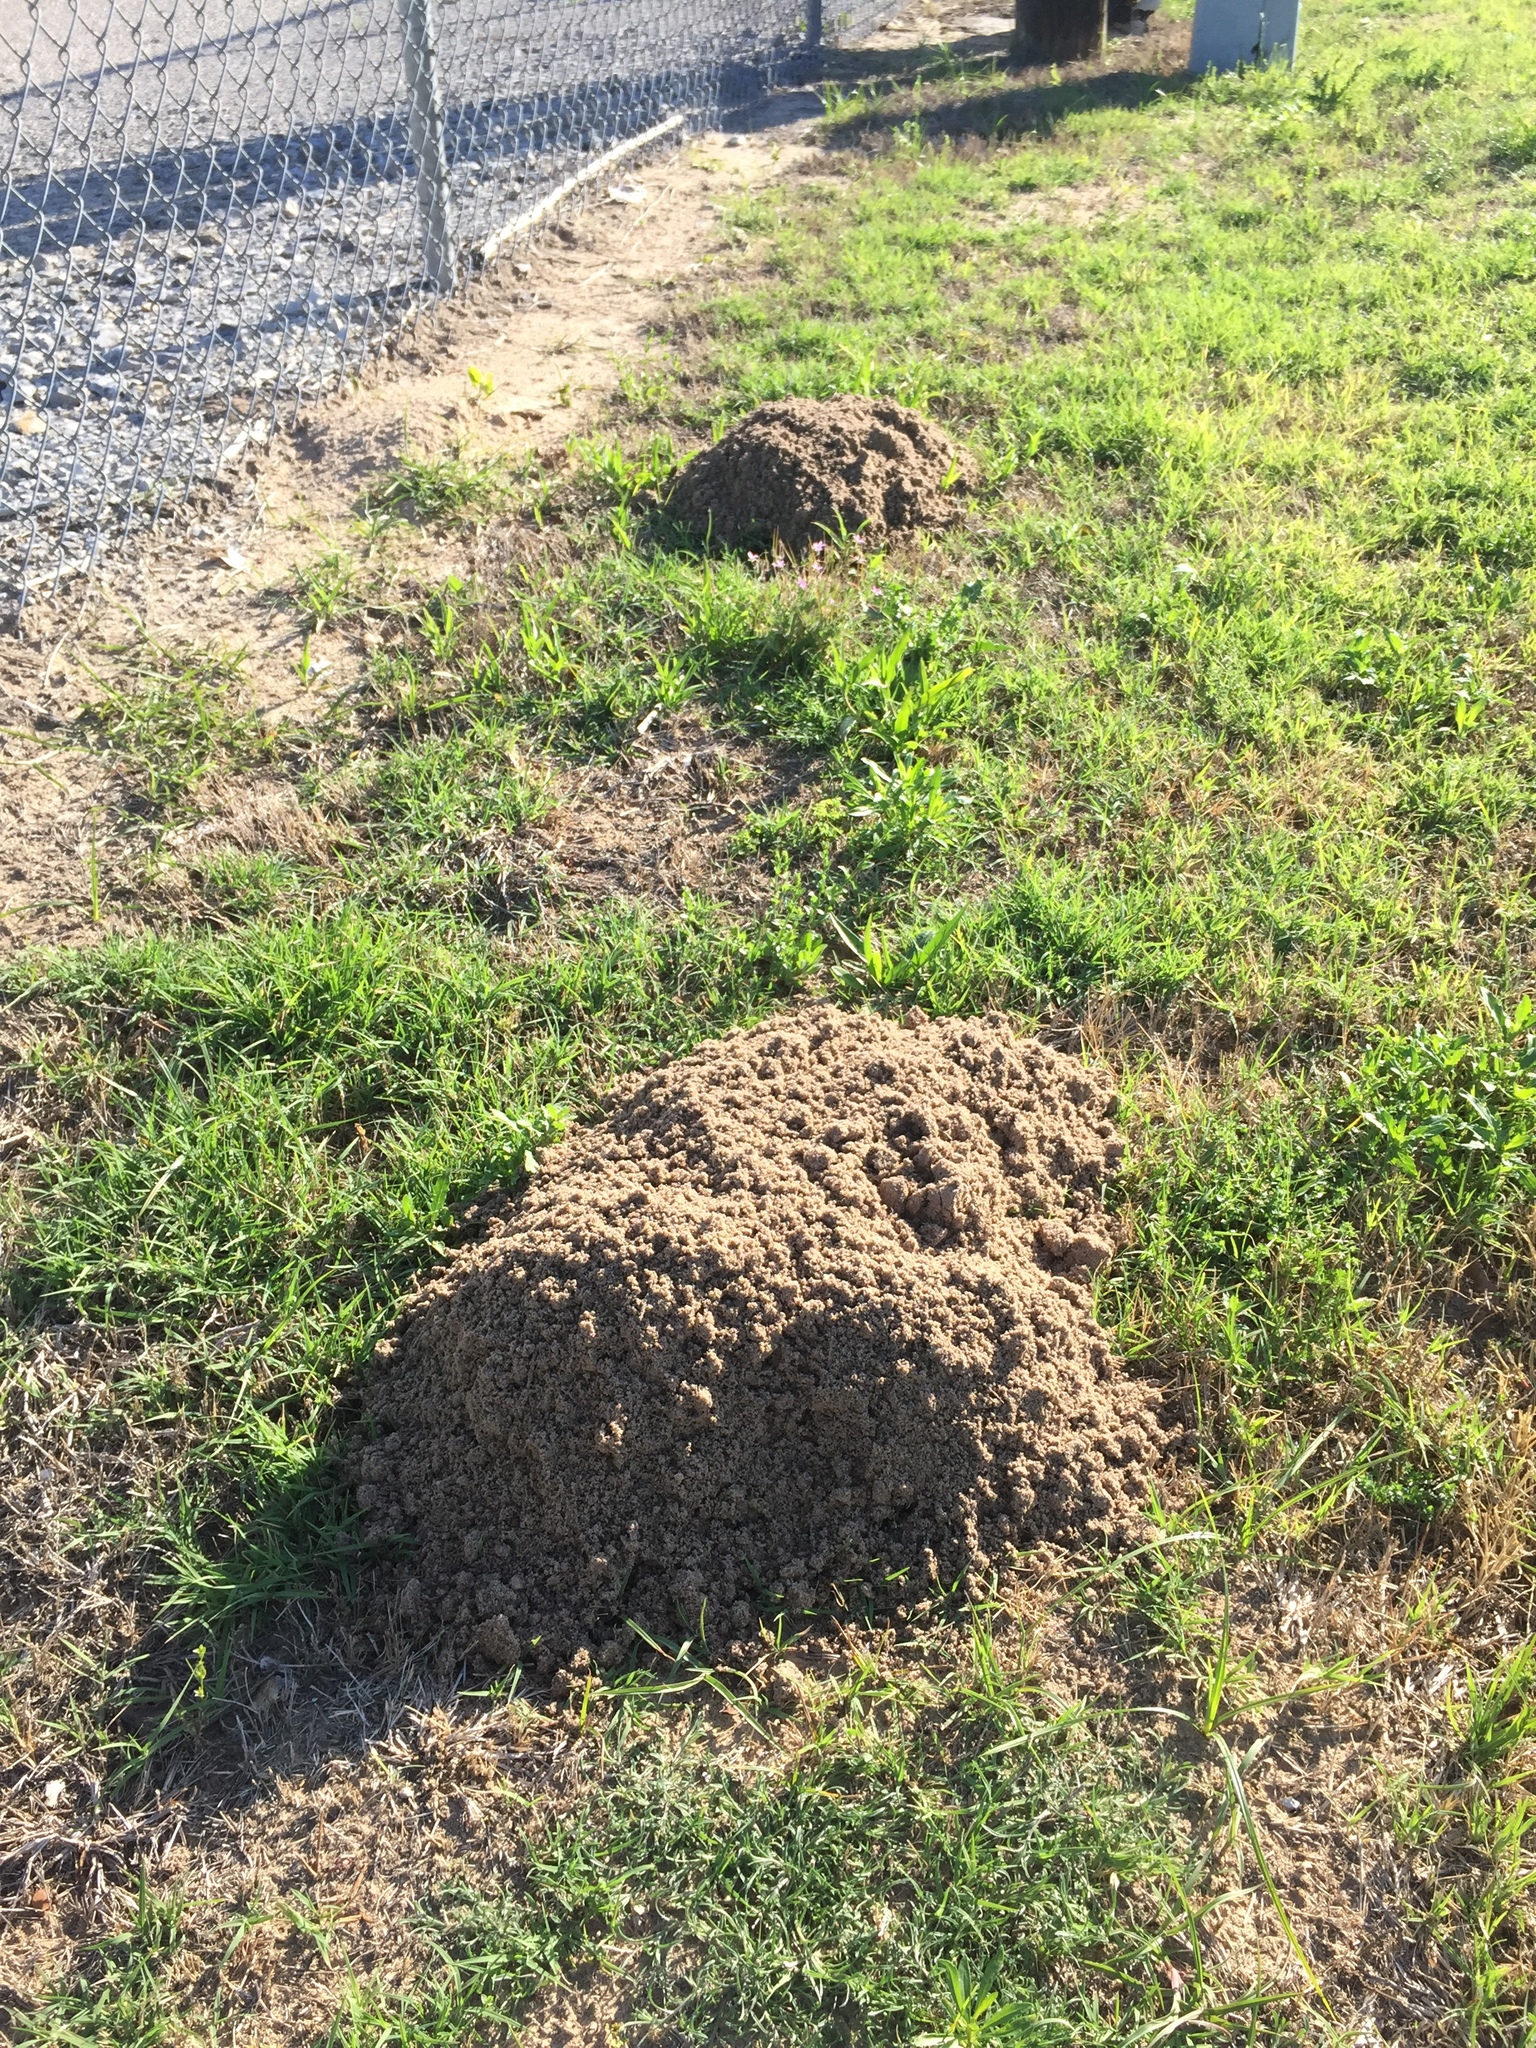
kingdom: Animalia
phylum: Chordata
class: Mammalia
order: Rodentia
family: Geomyidae
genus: Geomys
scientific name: Geomys bursarius
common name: Plains pocket gopher
